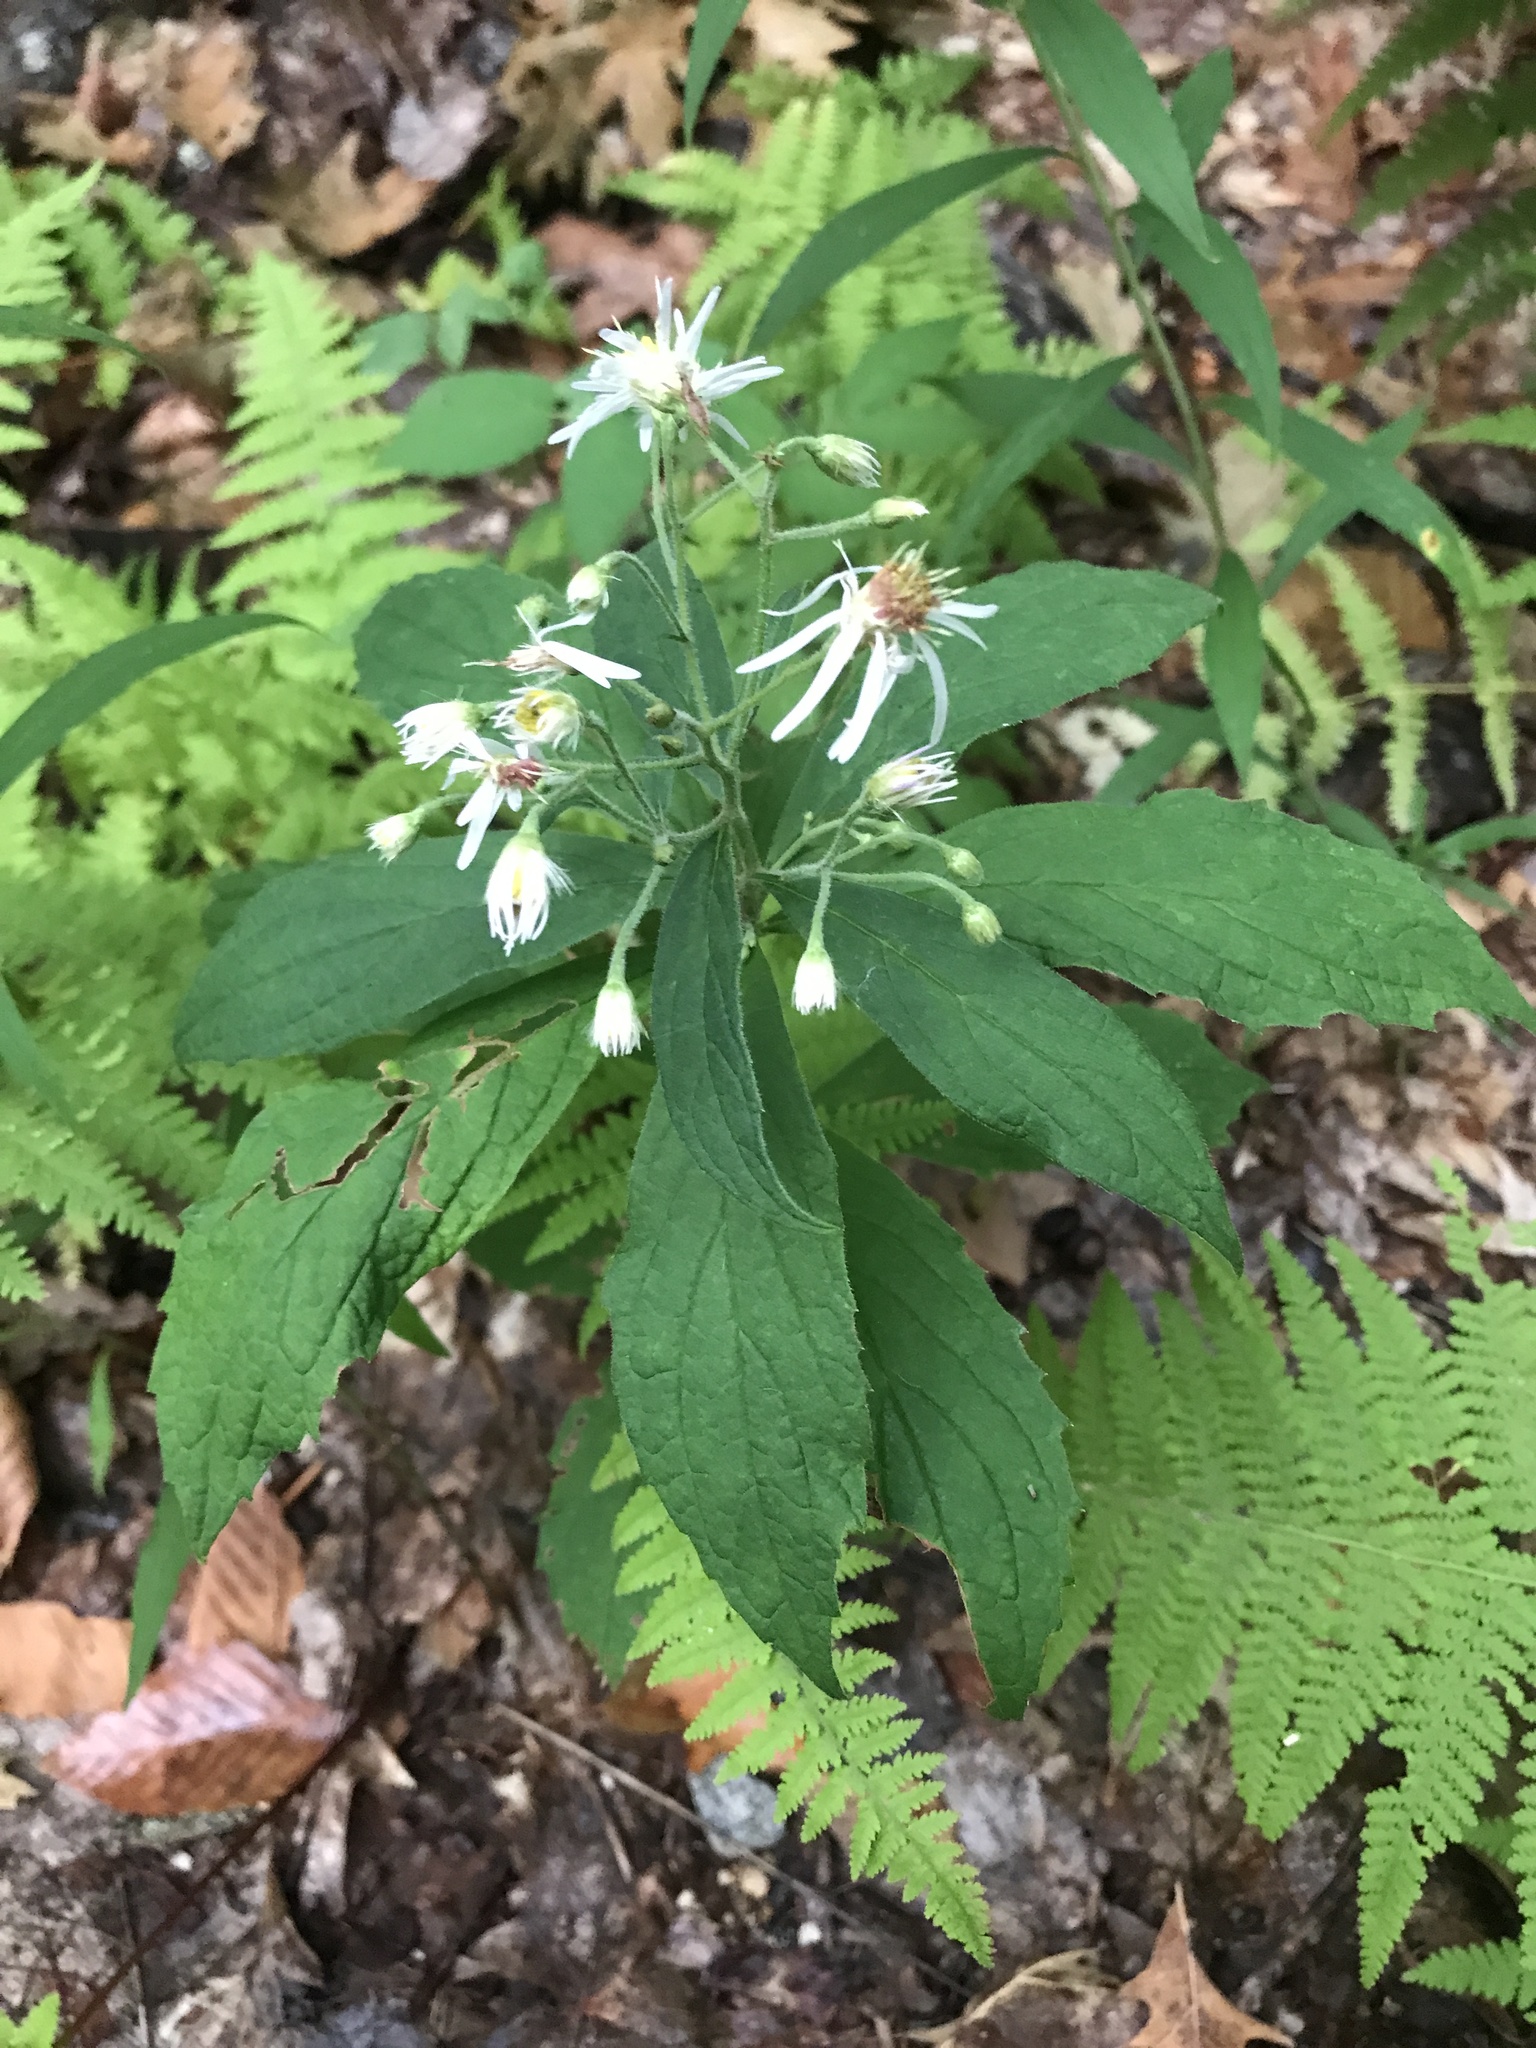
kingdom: Plantae
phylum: Tracheophyta
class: Magnoliopsida
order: Asterales
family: Asteraceae
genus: Oclemena
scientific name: Oclemena acuminata
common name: Mountain aster
